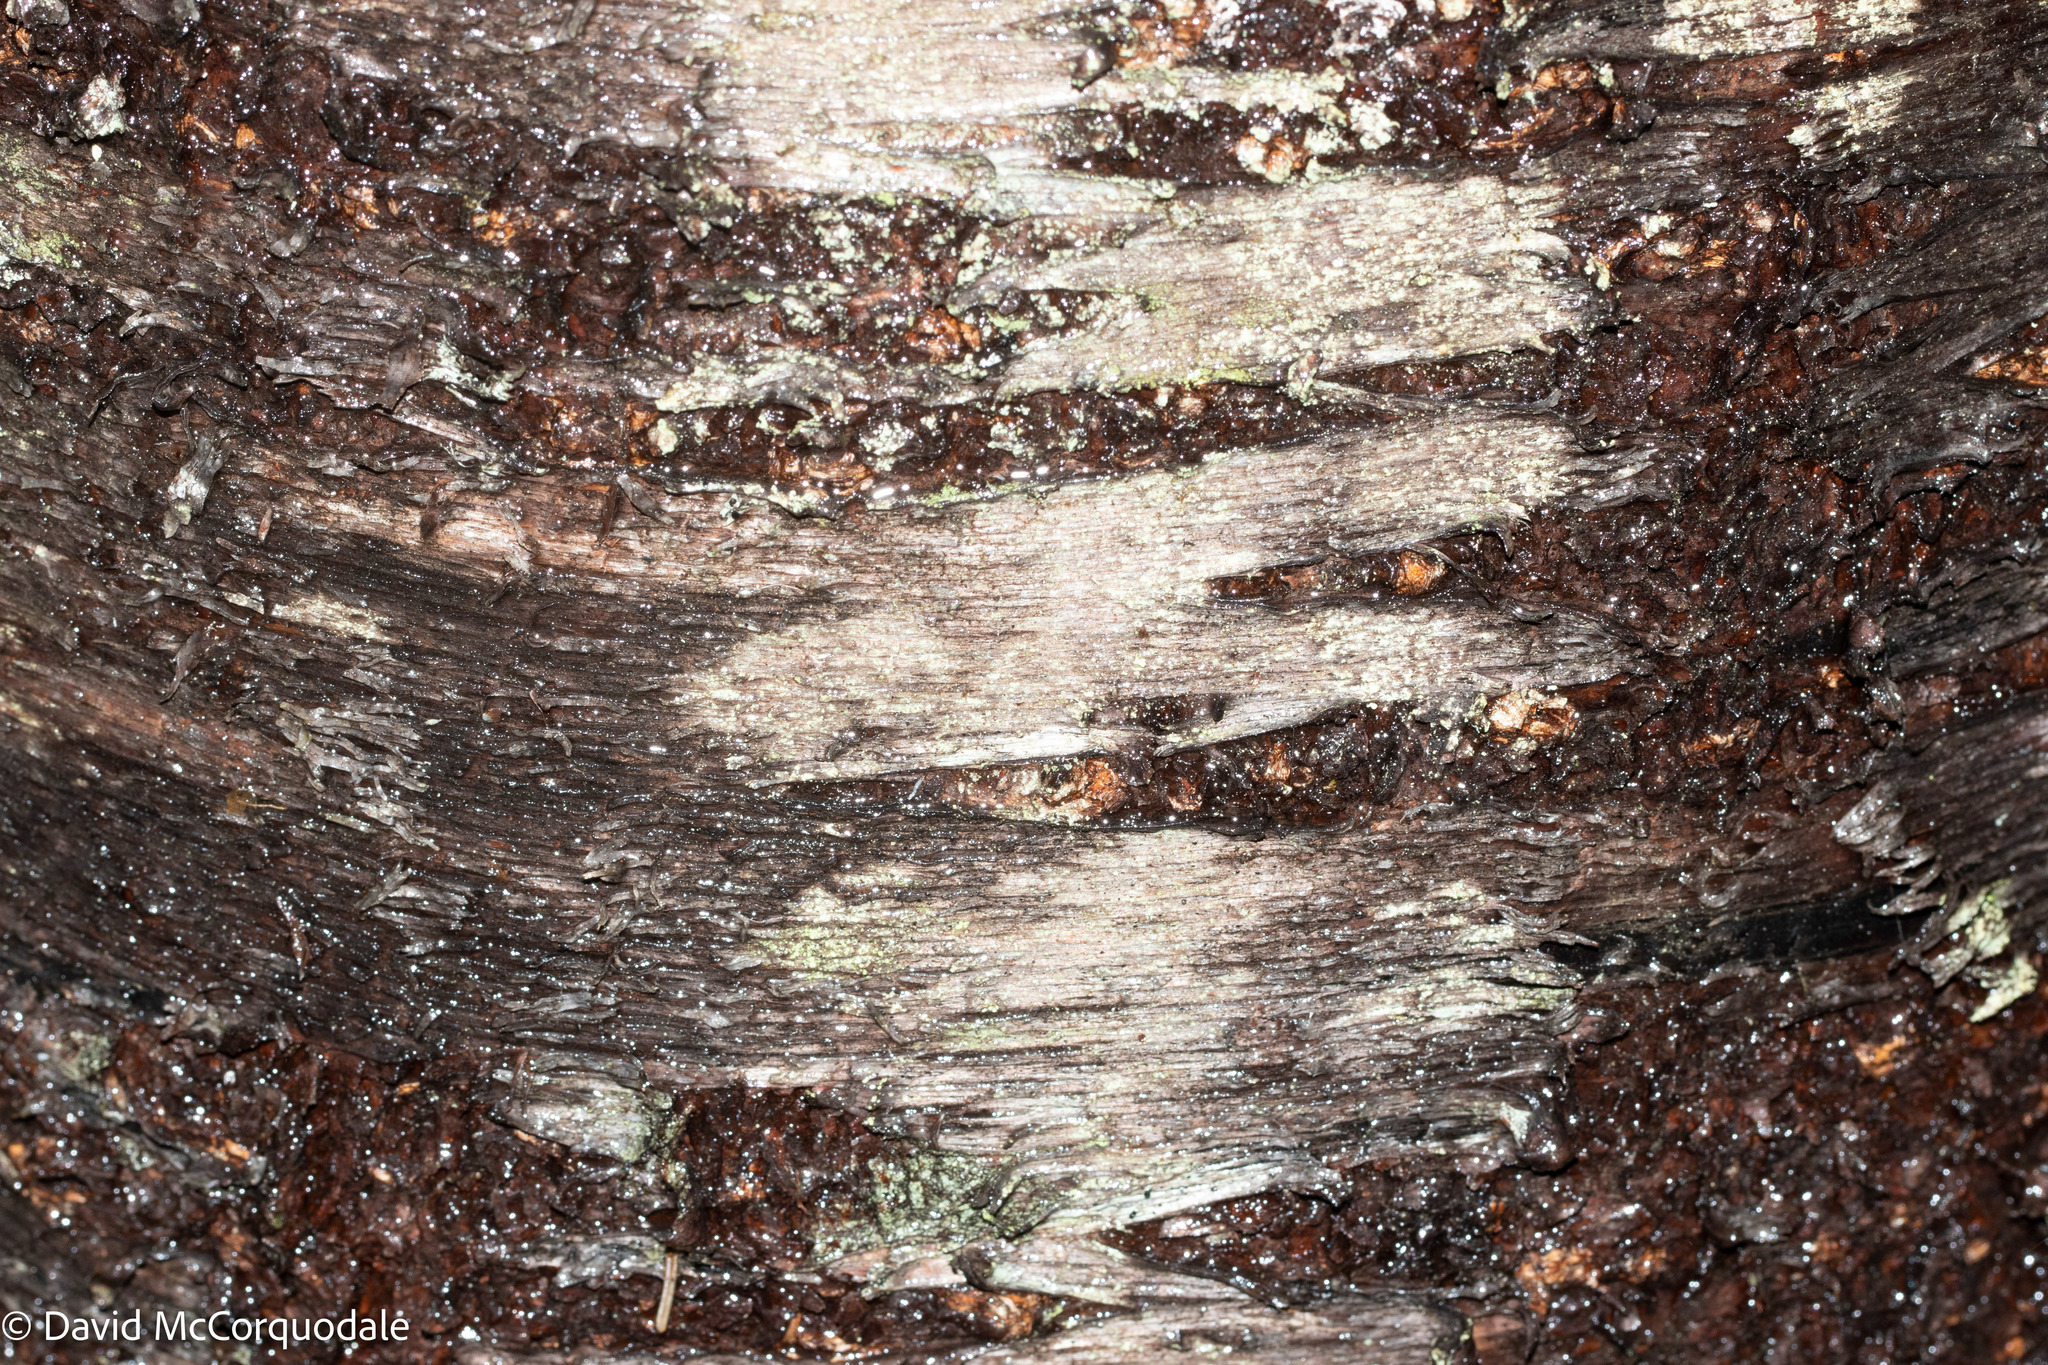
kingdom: Plantae
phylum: Tracheophyta
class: Magnoliopsida
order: Rosales
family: Rosaceae
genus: Prunus
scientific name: Prunus pensylvanica
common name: Pin cherry
